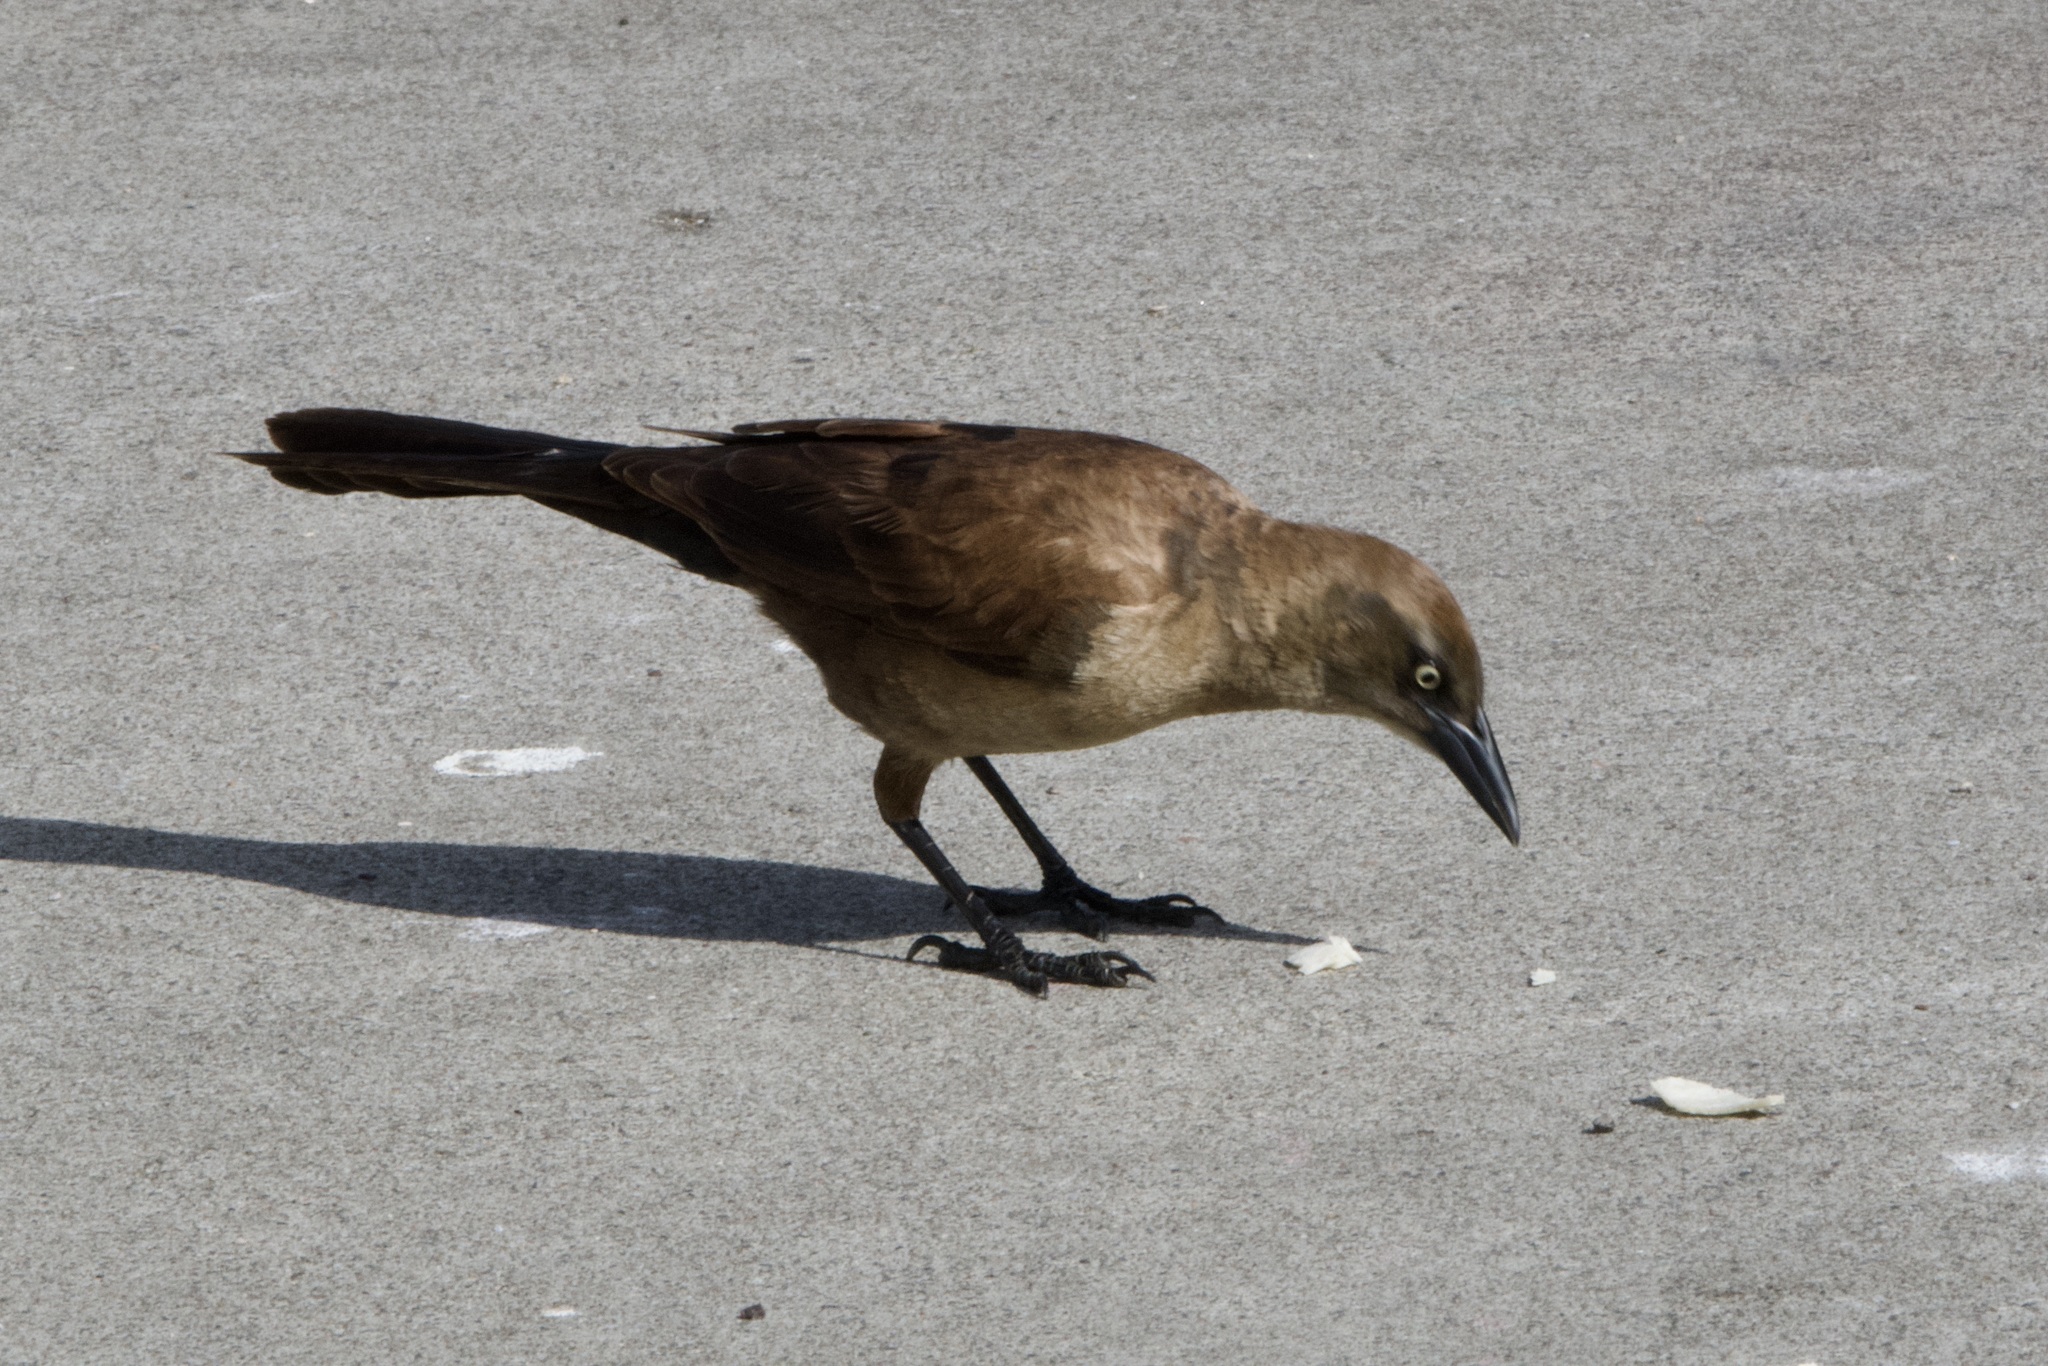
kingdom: Animalia
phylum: Chordata
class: Aves
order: Passeriformes
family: Icteridae
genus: Quiscalus
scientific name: Quiscalus mexicanus
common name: Great-tailed grackle
